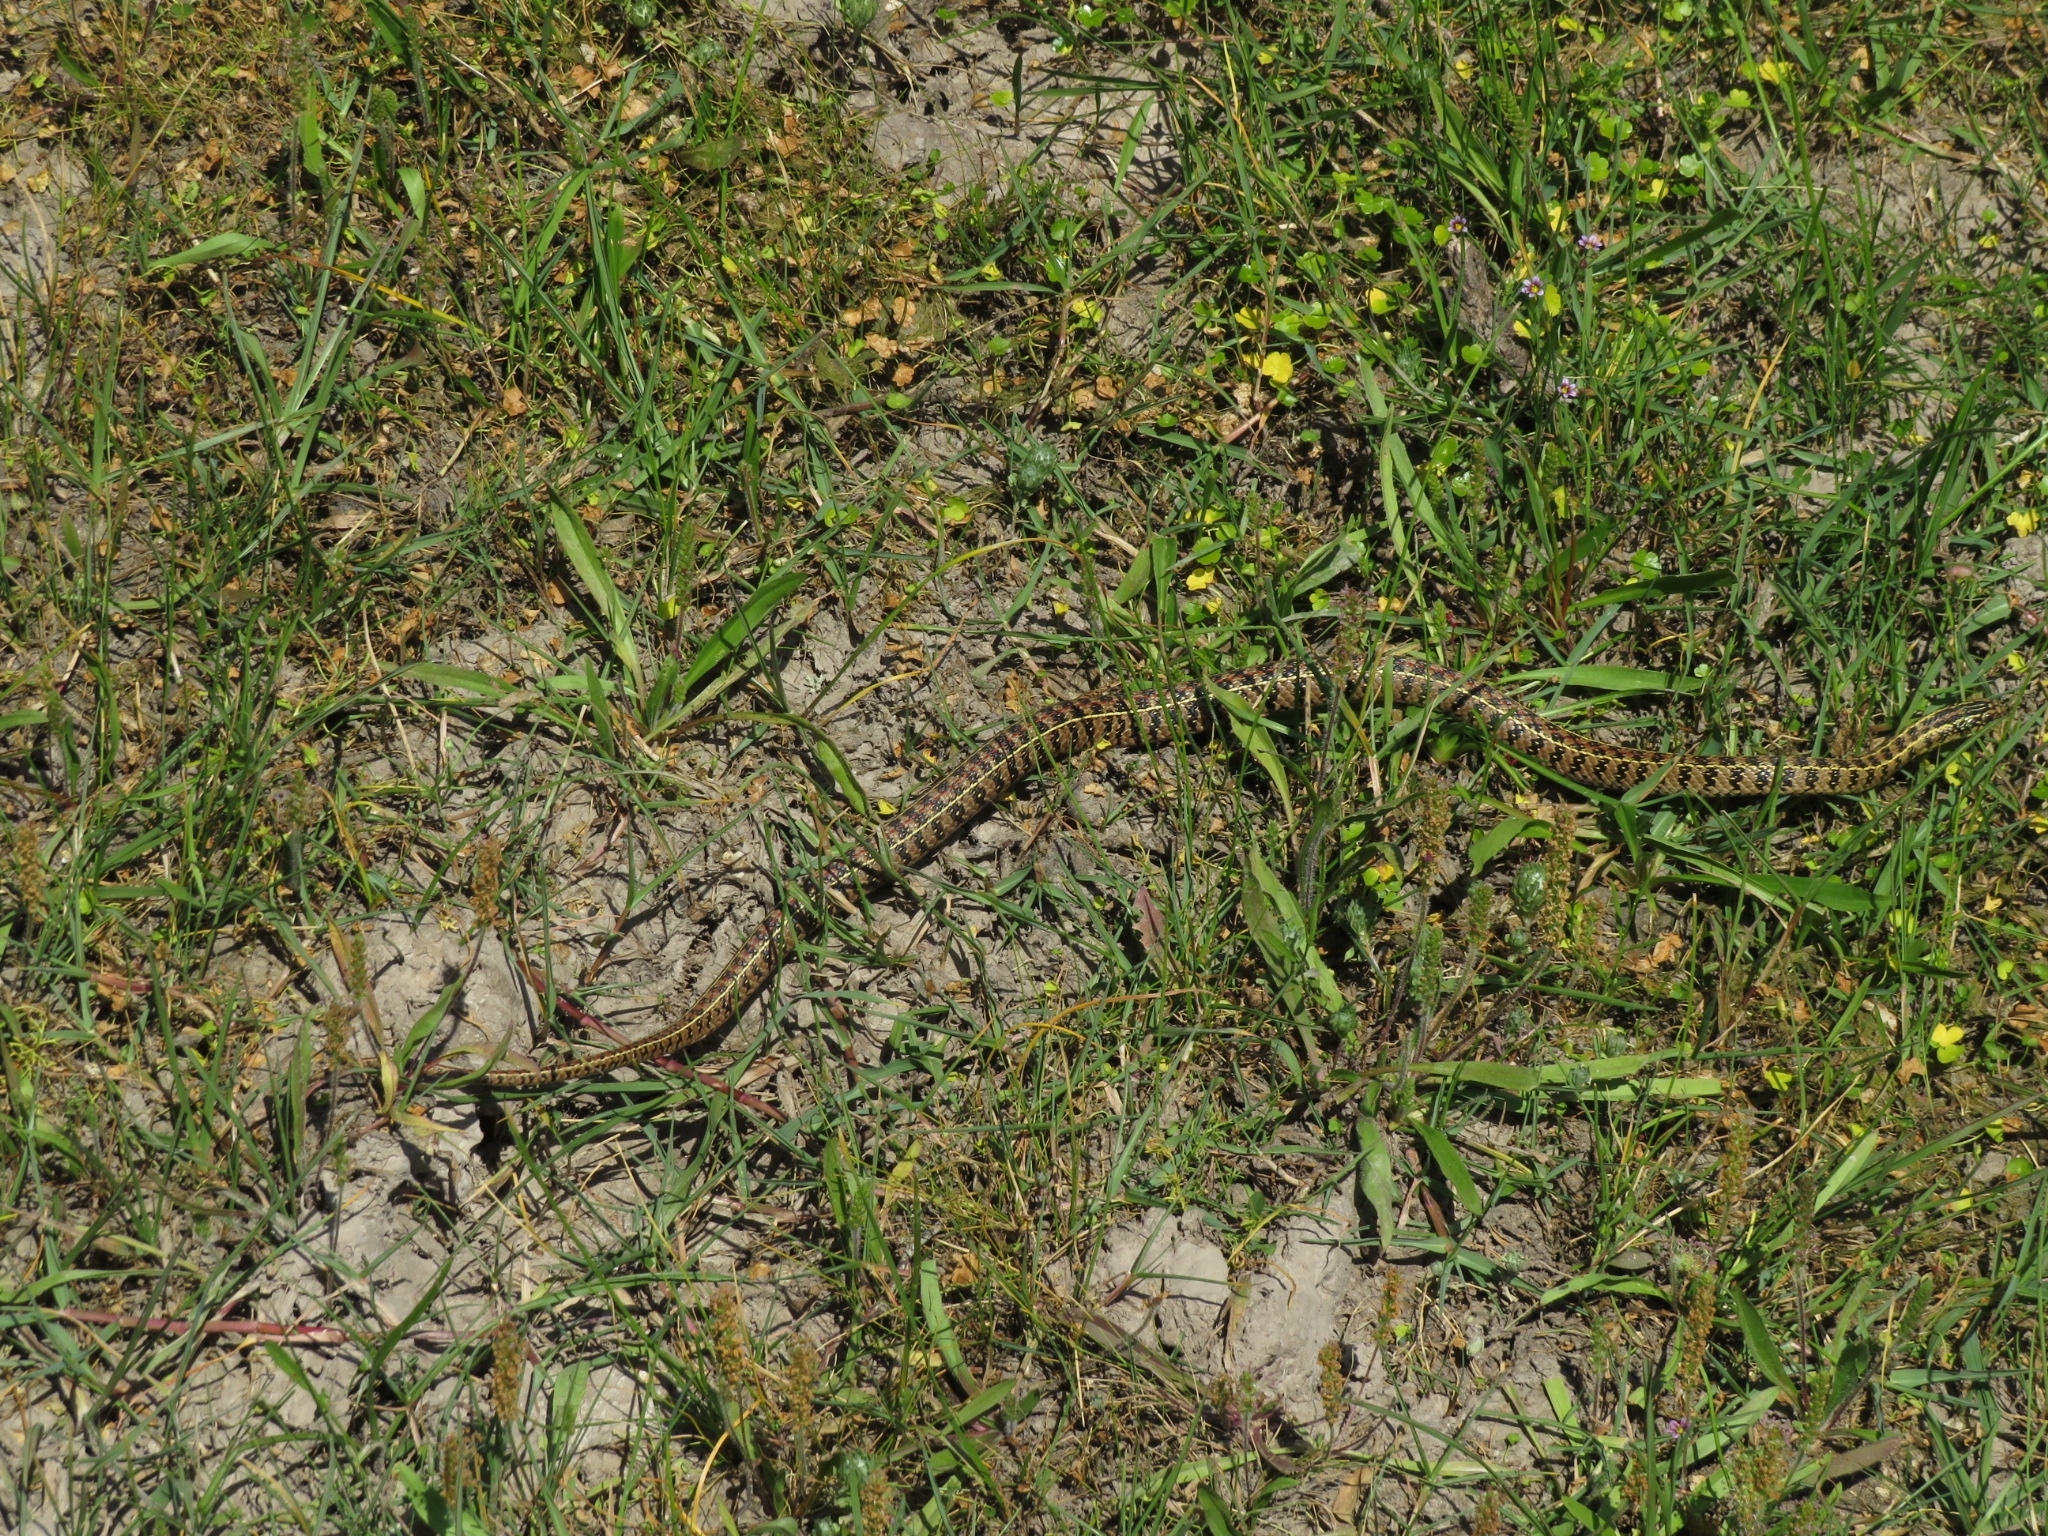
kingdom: Animalia
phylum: Chordata
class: Squamata
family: Colubridae
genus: Lygophis
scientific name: Lygophis anomalus
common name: English common name not available
